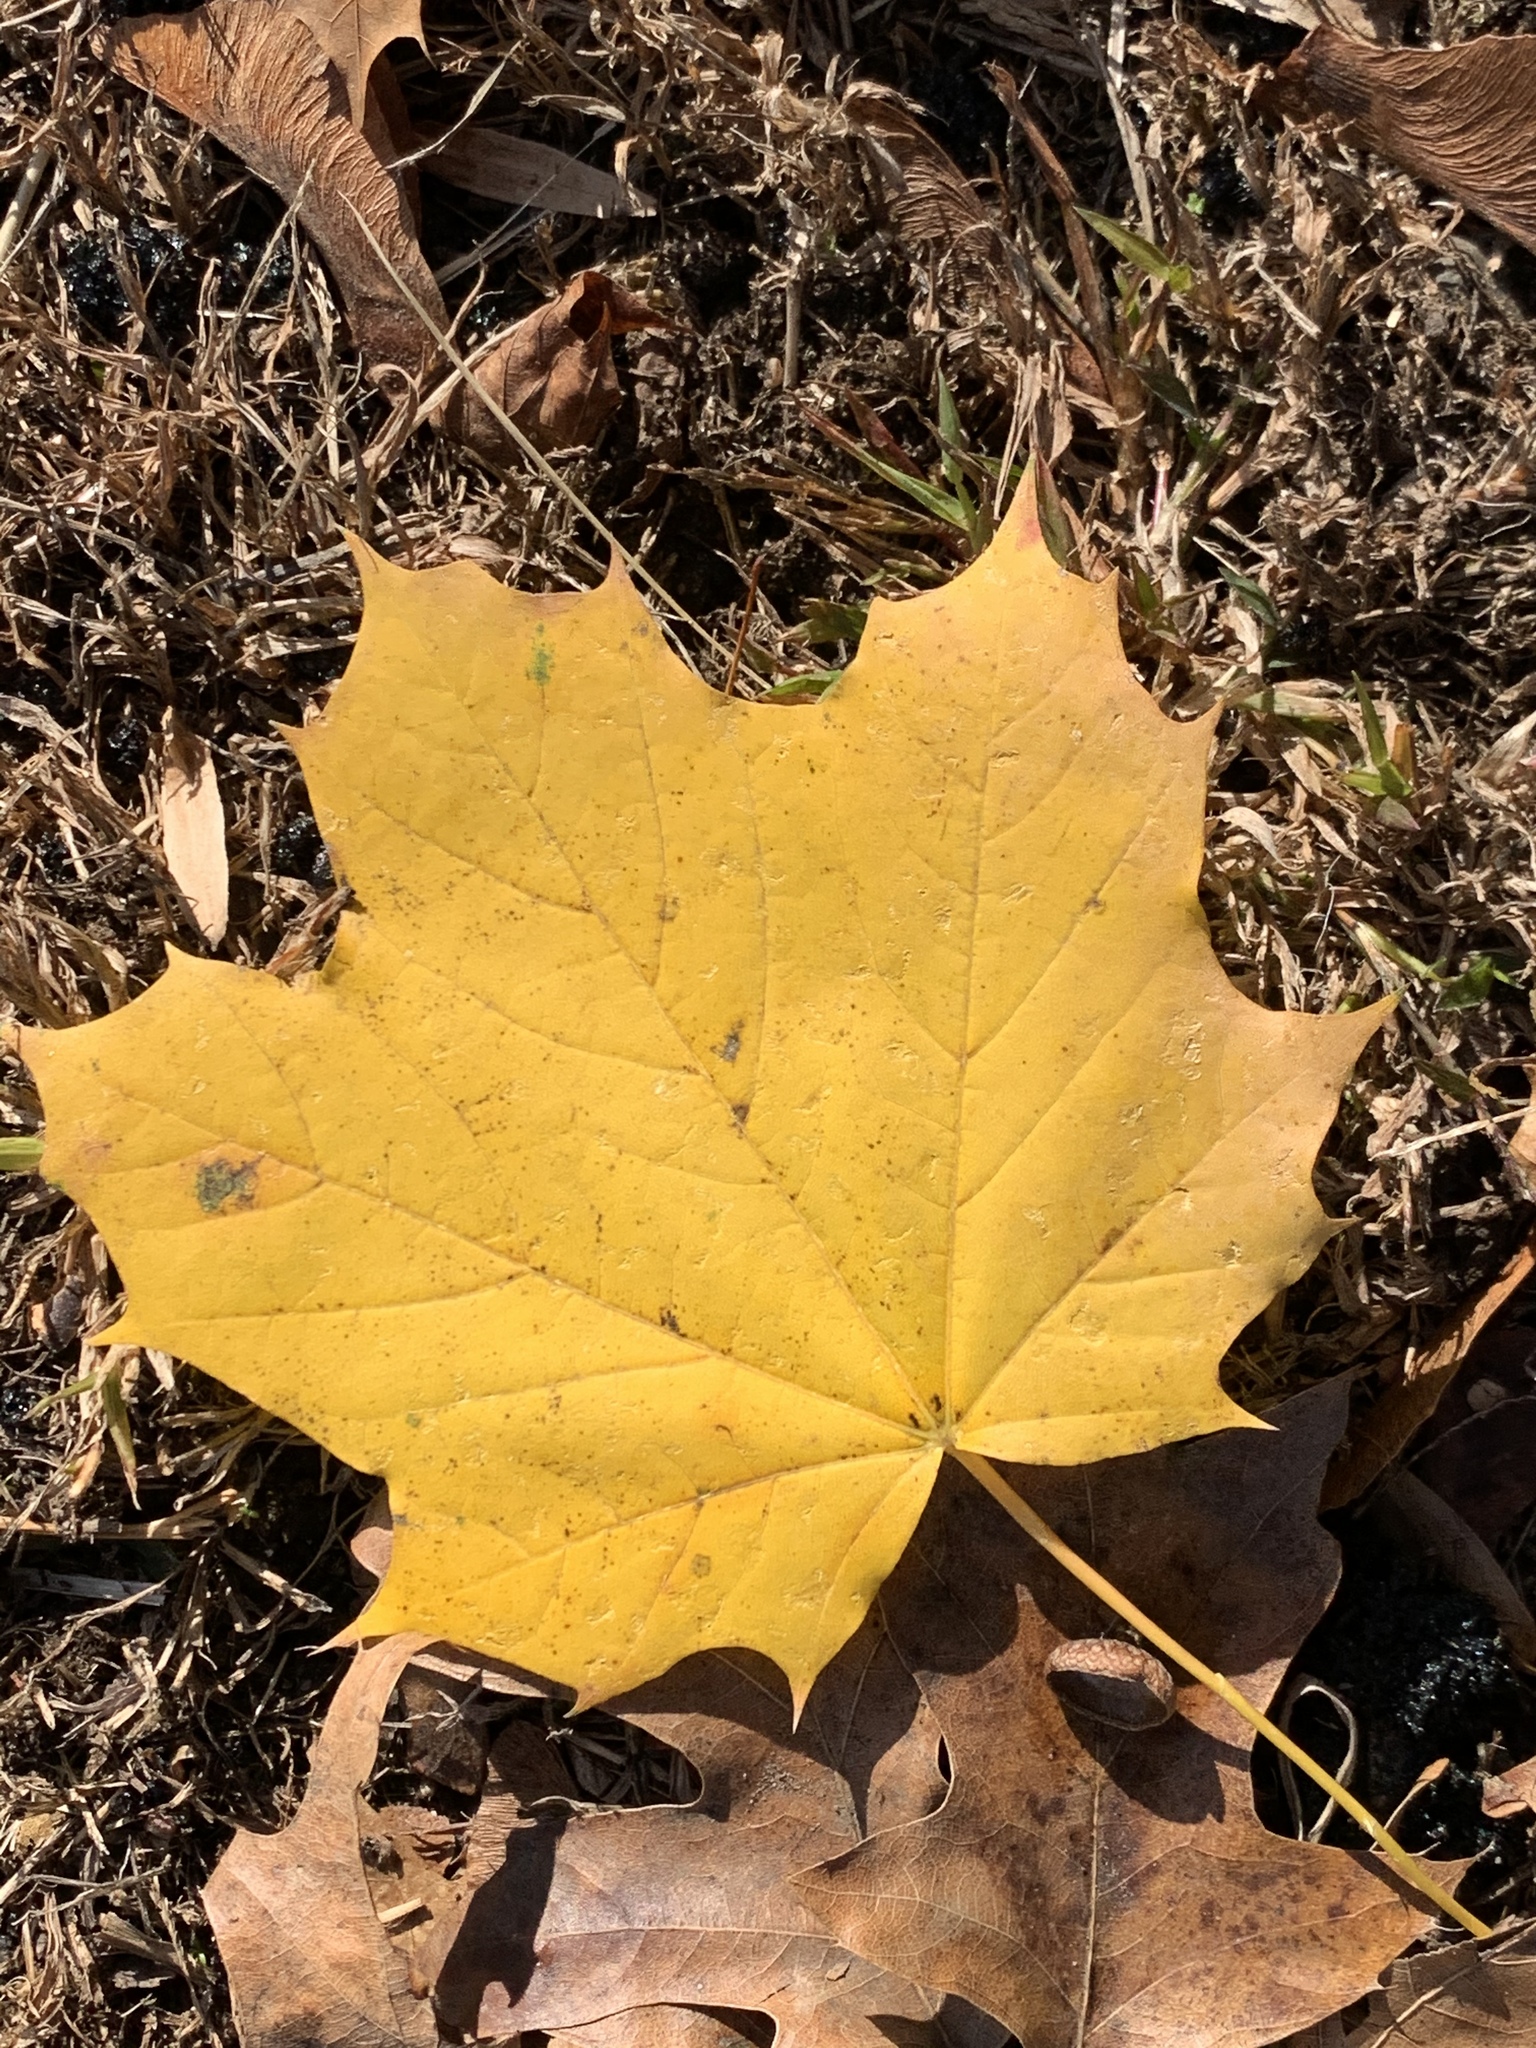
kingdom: Plantae
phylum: Tracheophyta
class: Magnoliopsida
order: Sapindales
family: Sapindaceae
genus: Acer
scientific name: Acer platanoides
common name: Norway maple
